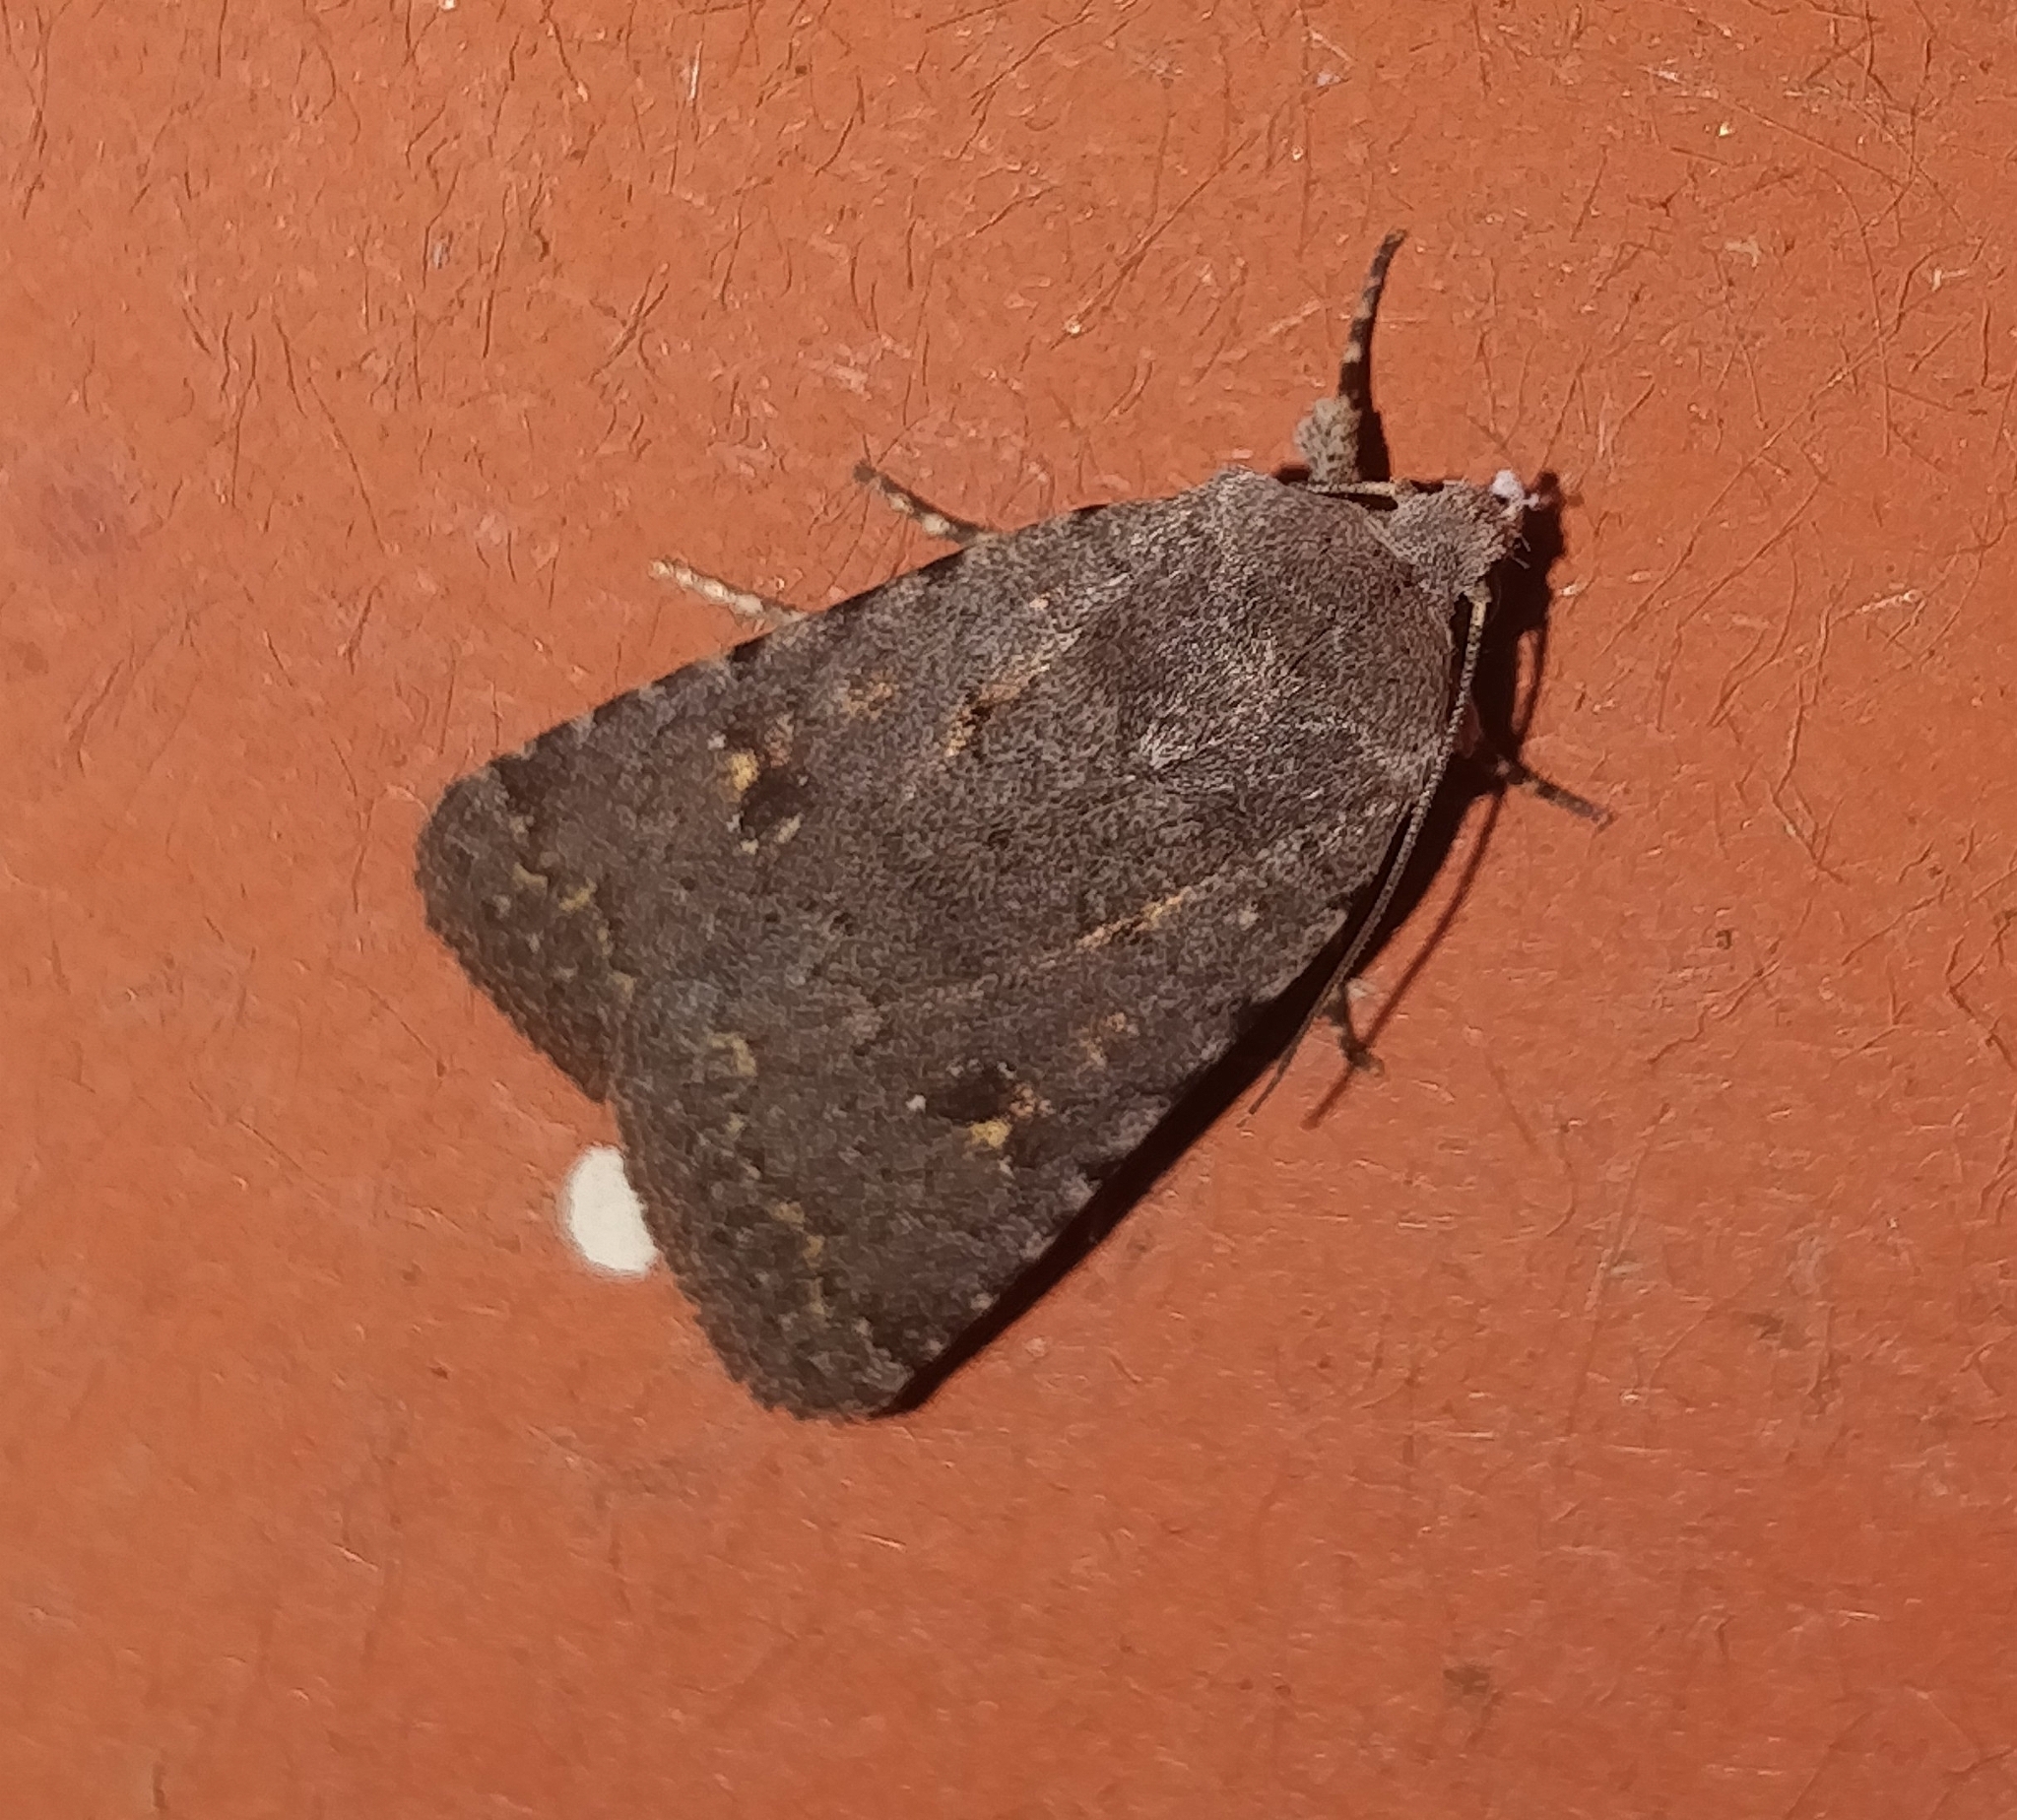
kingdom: Animalia
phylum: Arthropoda
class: Insecta
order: Lepidoptera
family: Noctuidae
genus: Caradrina
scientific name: Caradrina rebeli
